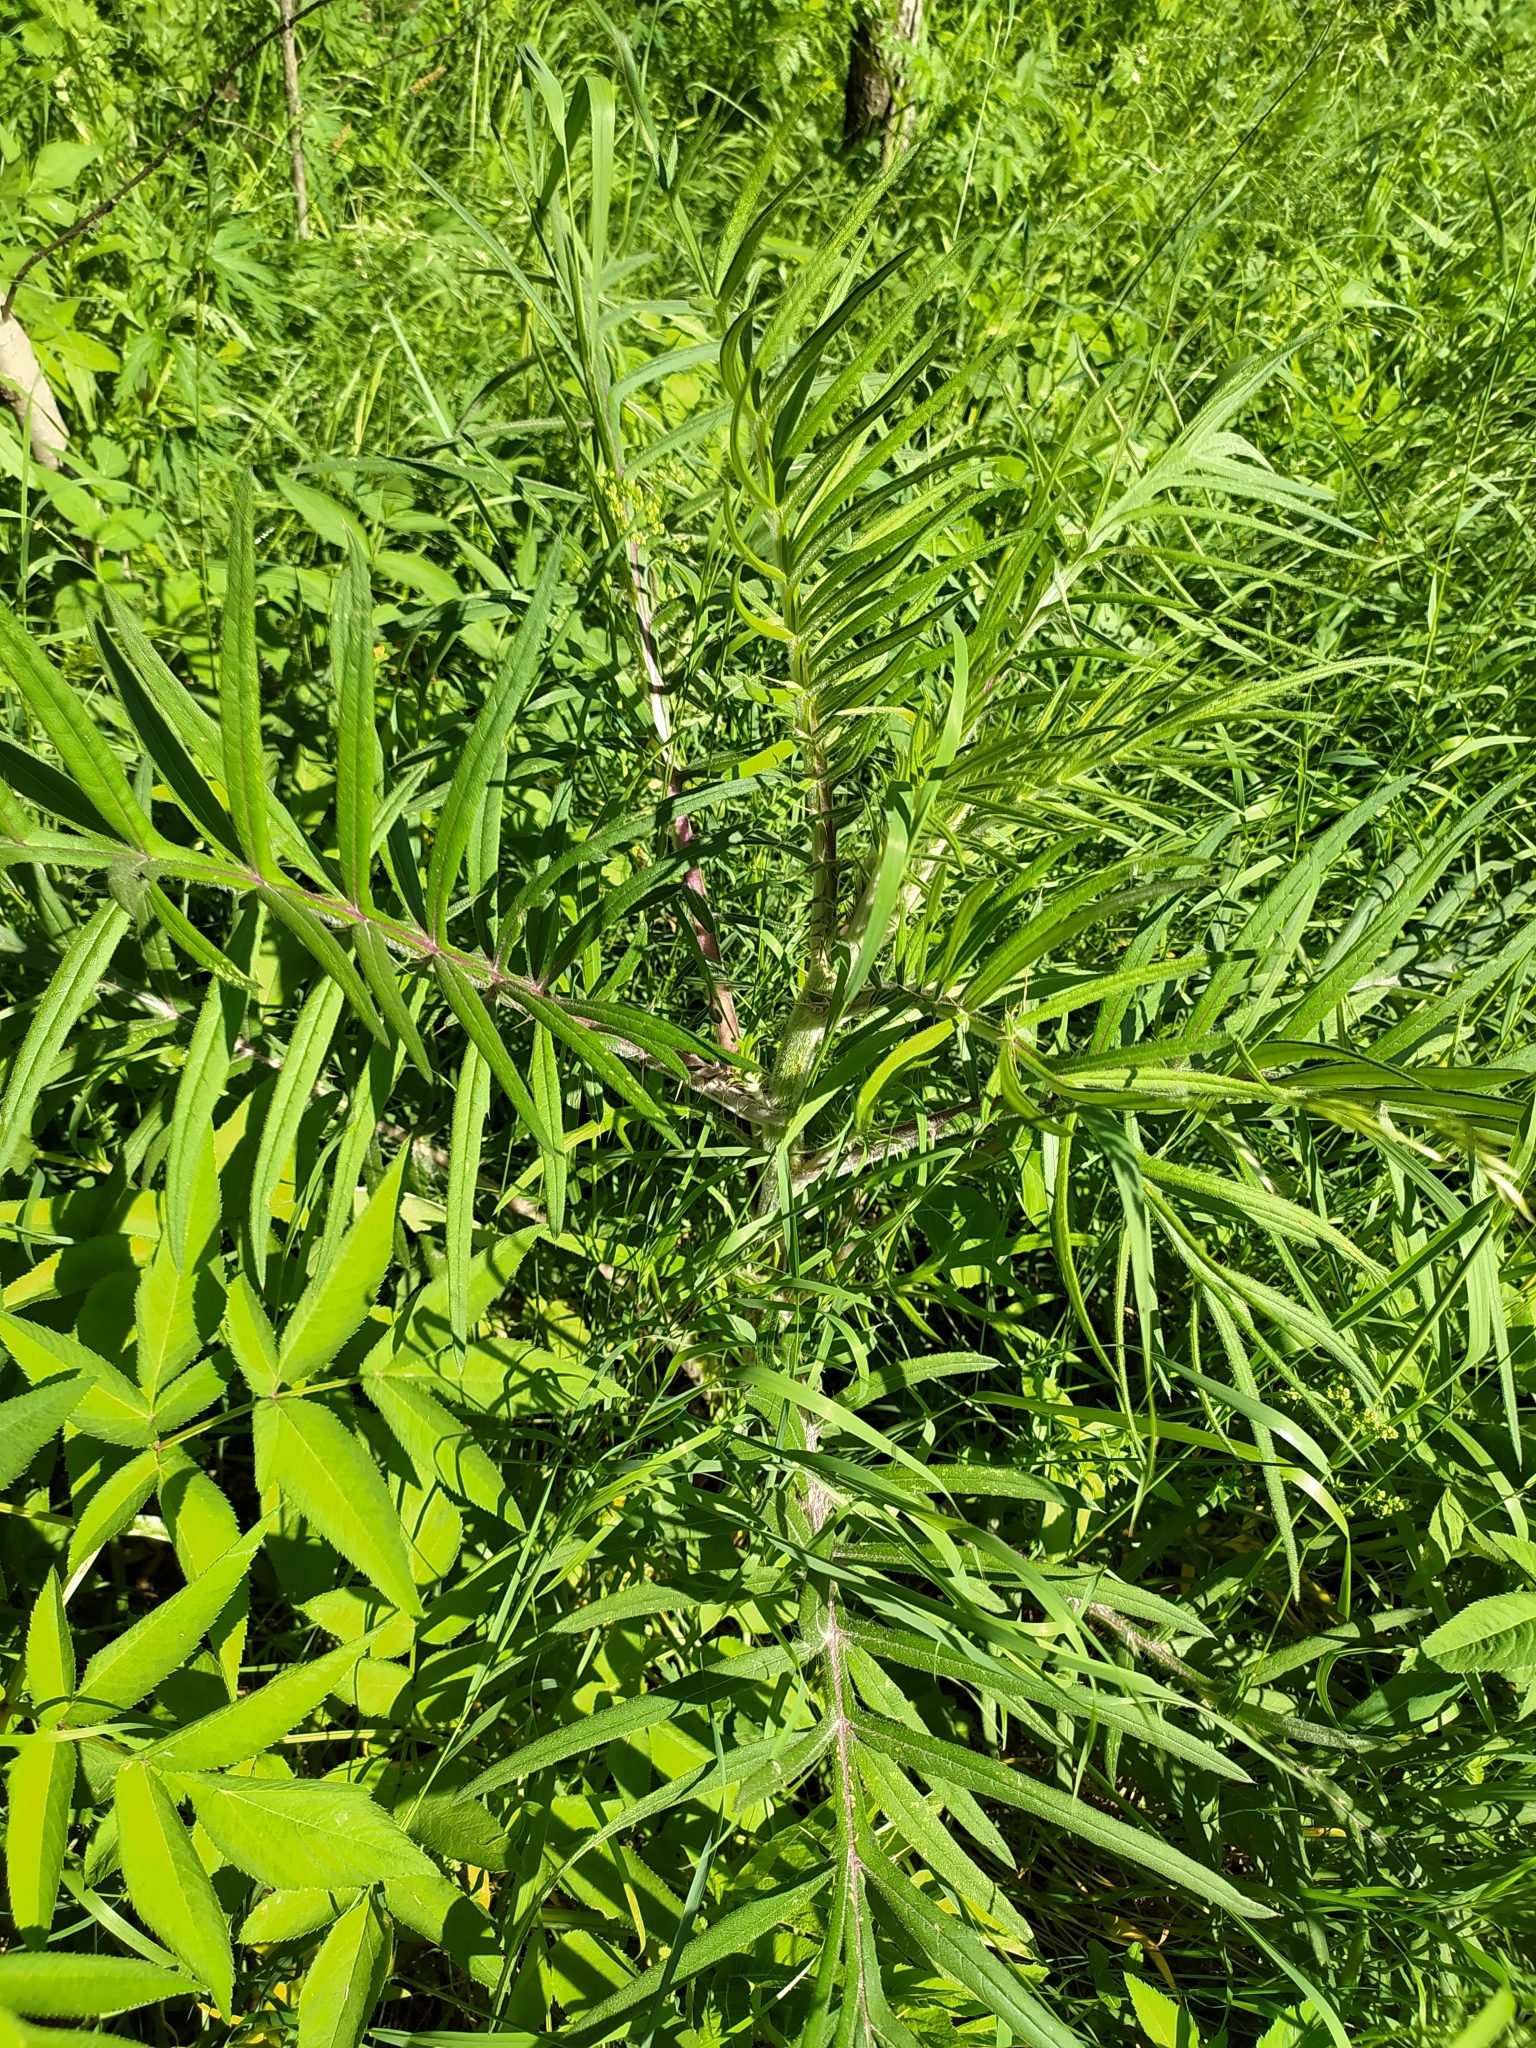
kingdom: Plantae
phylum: Tracheophyta
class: Magnoliopsida
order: Asterales
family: Asteraceae
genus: Lophiolepis
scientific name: Lophiolepis decussata
